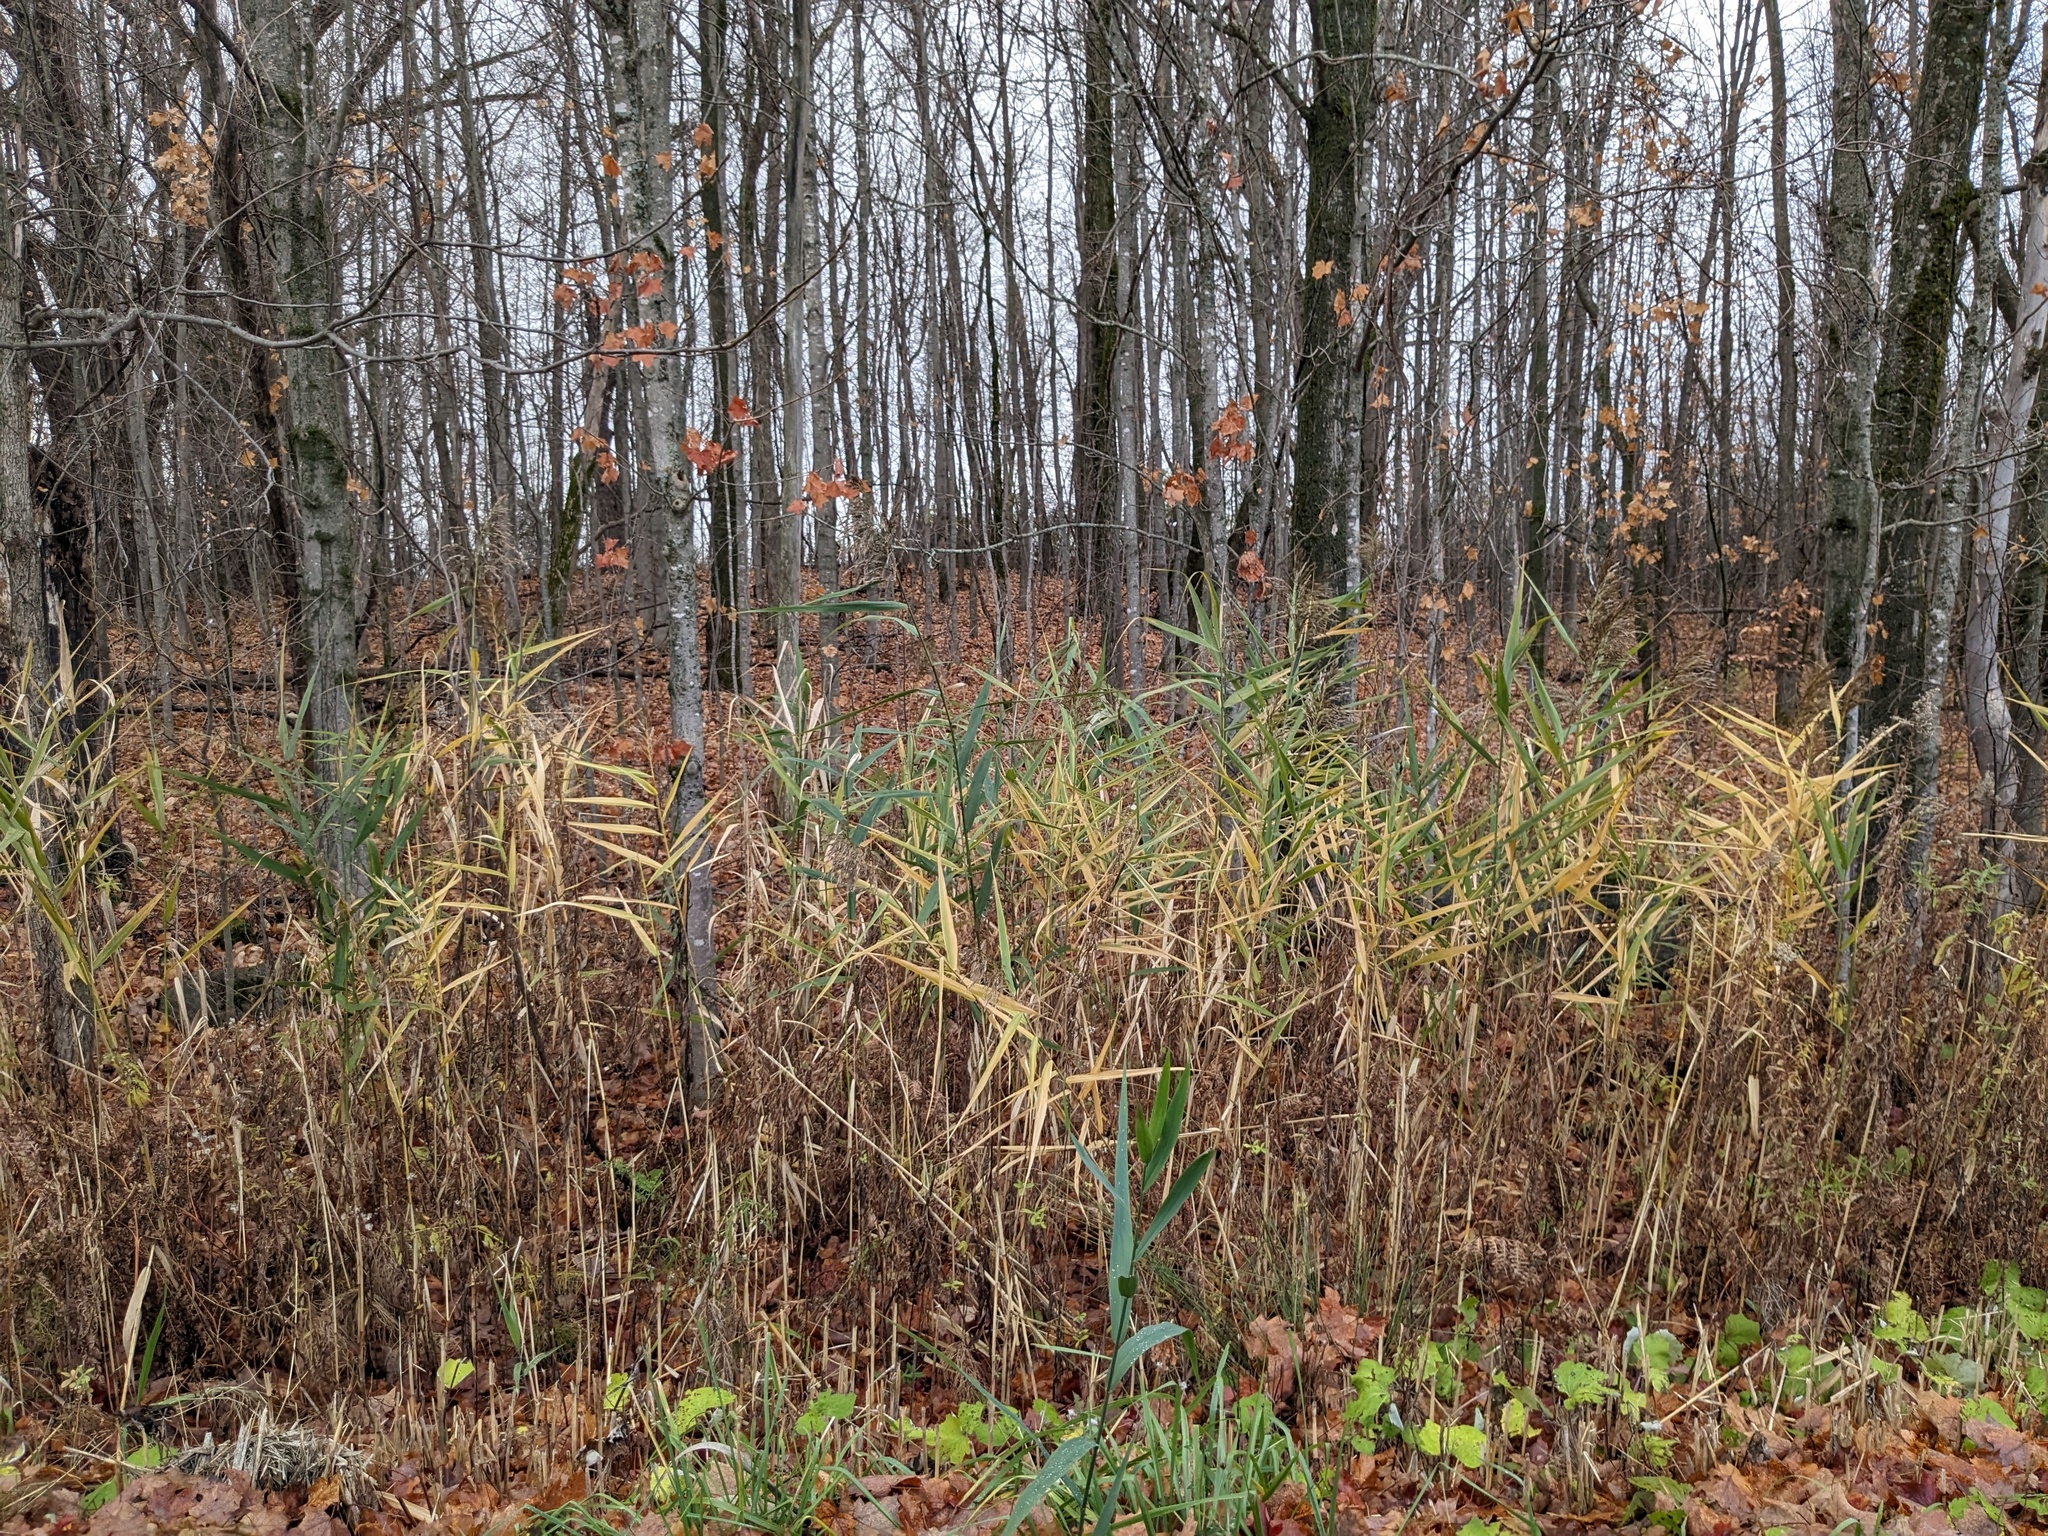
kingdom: Plantae
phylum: Tracheophyta
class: Liliopsida
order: Poales
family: Poaceae
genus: Phragmites
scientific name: Phragmites australis
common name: Common reed
